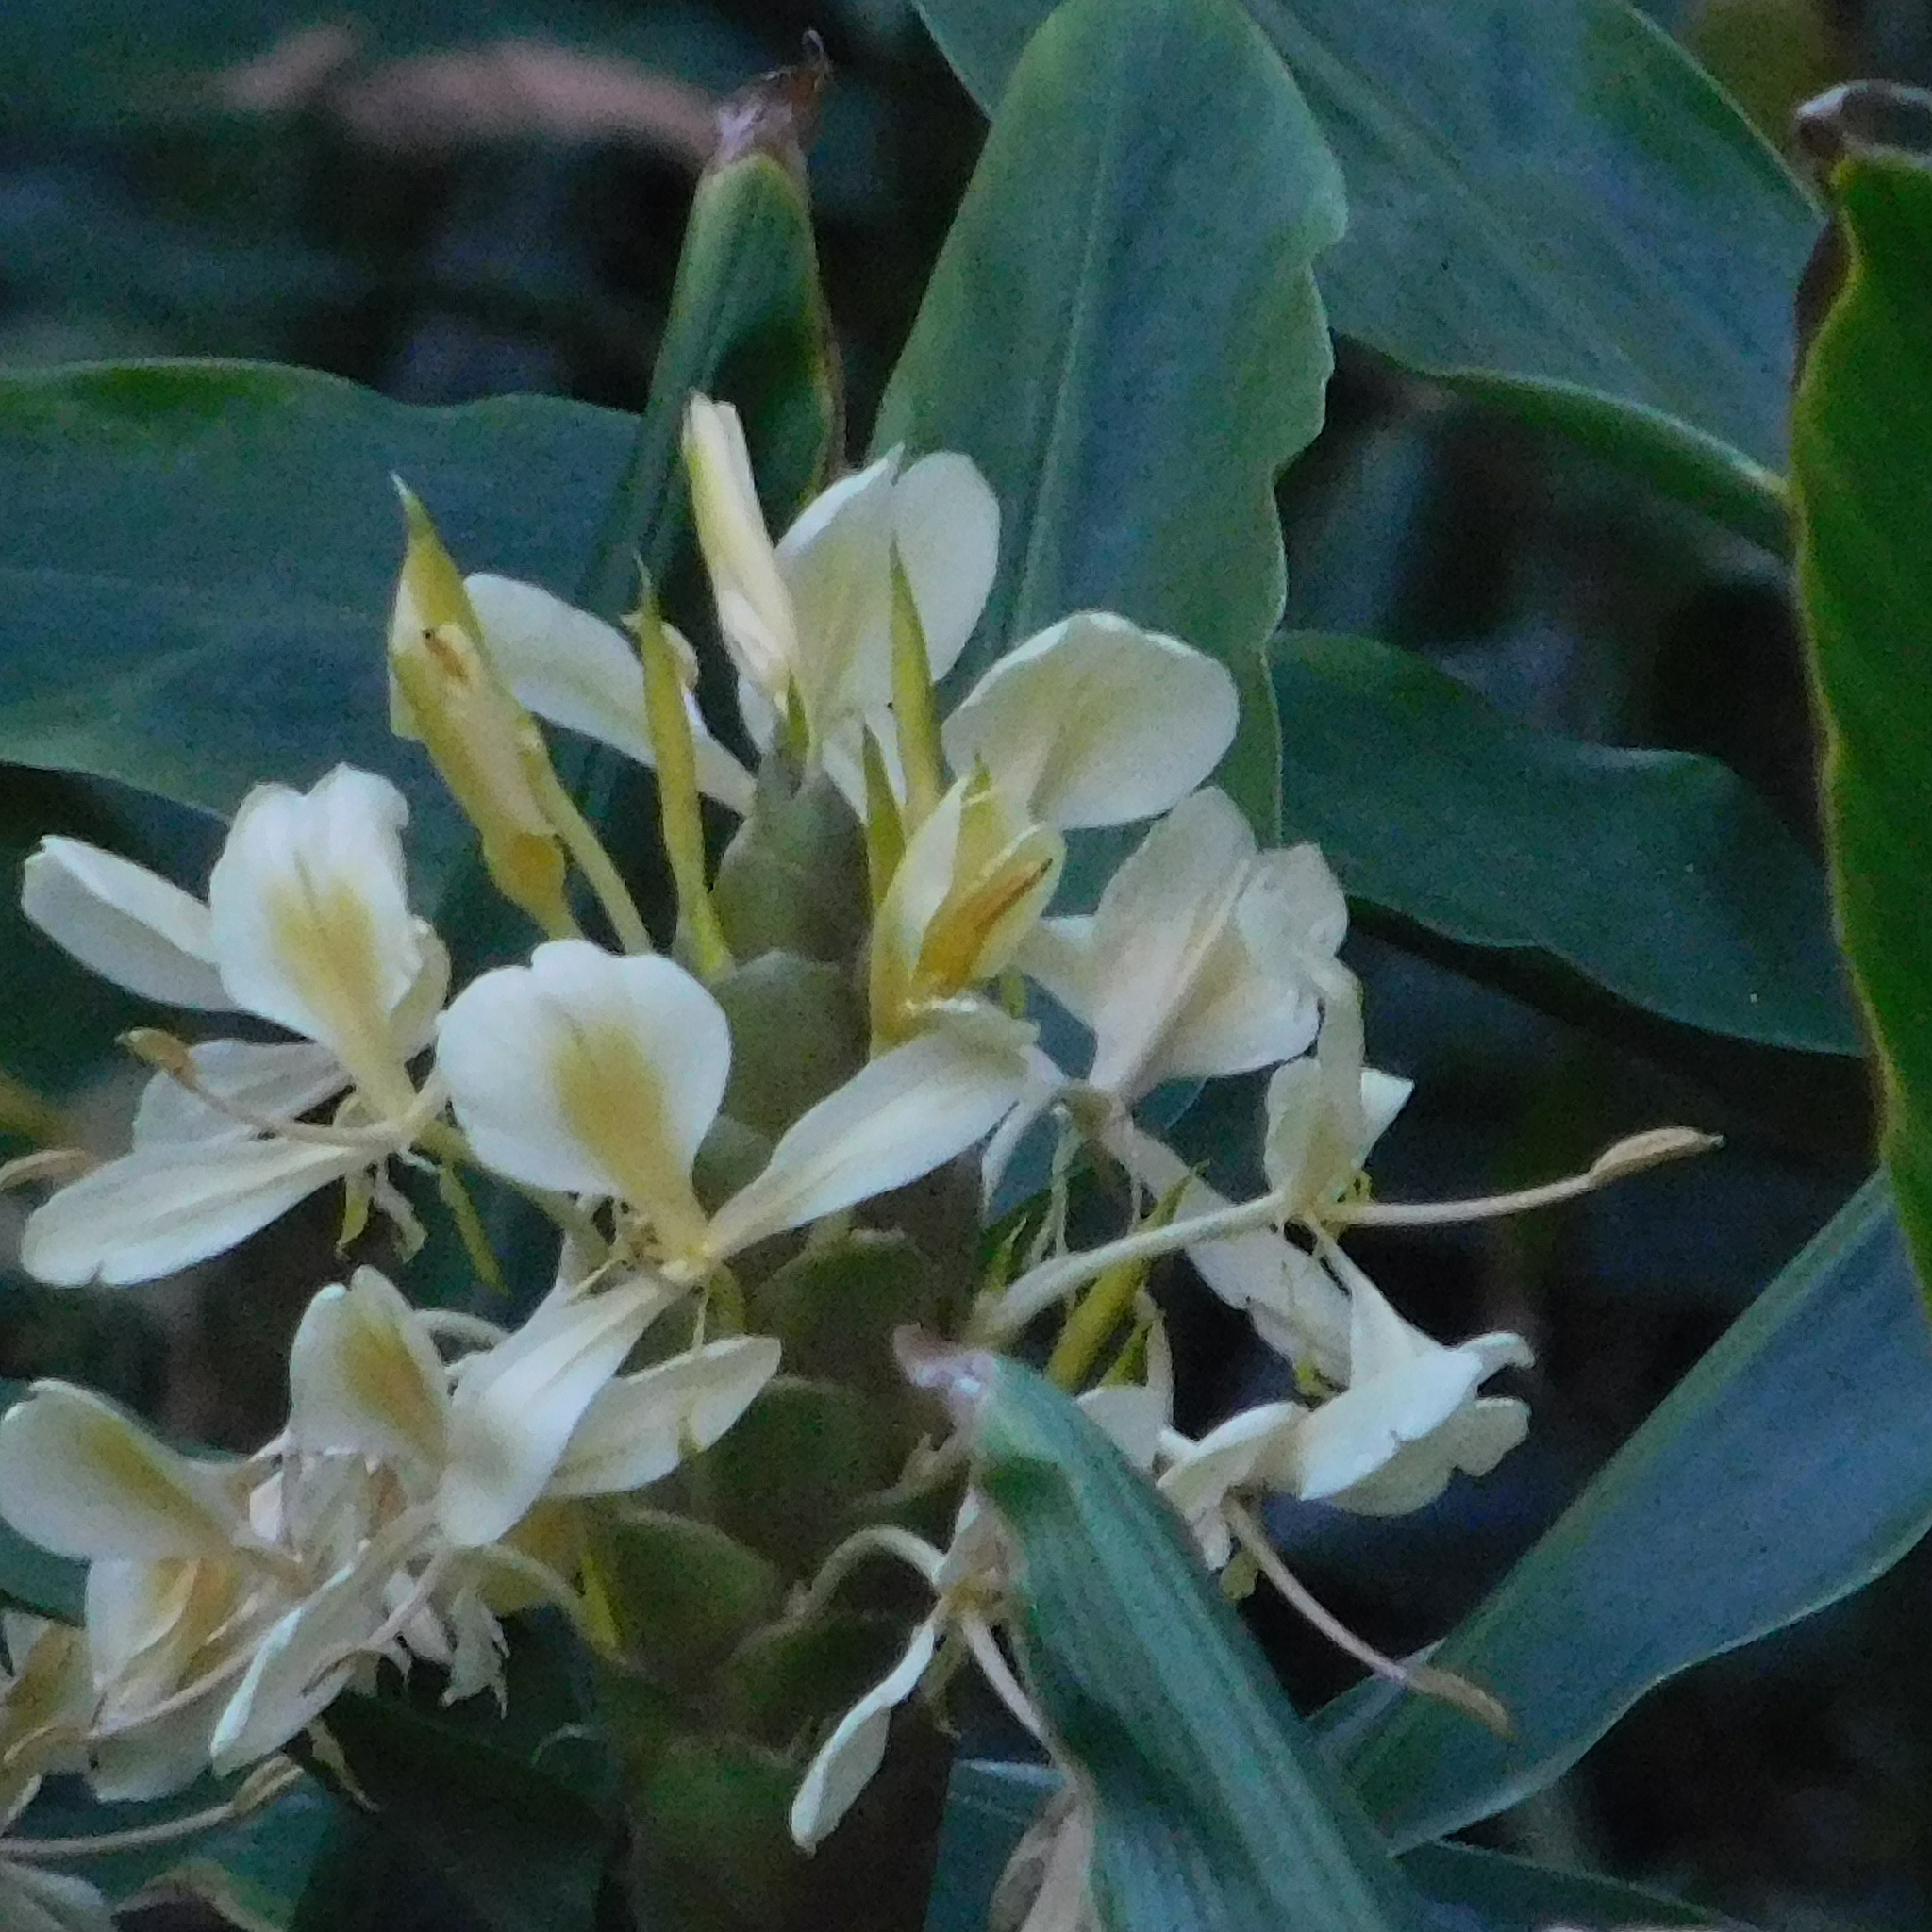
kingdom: Plantae
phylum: Tracheophyta
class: Liliopsida
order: Zingiberales
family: Zingiberaceae
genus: Hedychium
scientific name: Hedychium flavescens
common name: Yellow ginger
